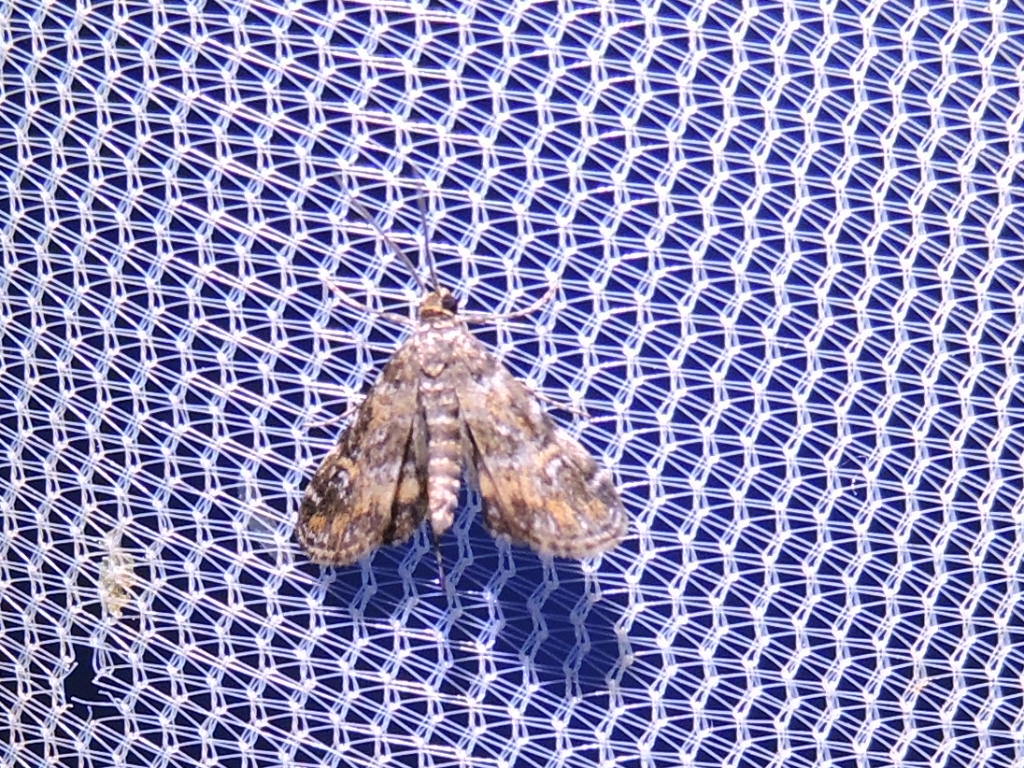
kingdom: Animalia
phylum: Arthropoda
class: Insecta
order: Lepidoptera
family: Crambidae
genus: Elophila
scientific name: Elophila obliteralis
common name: Waterlily leafcutter moth
